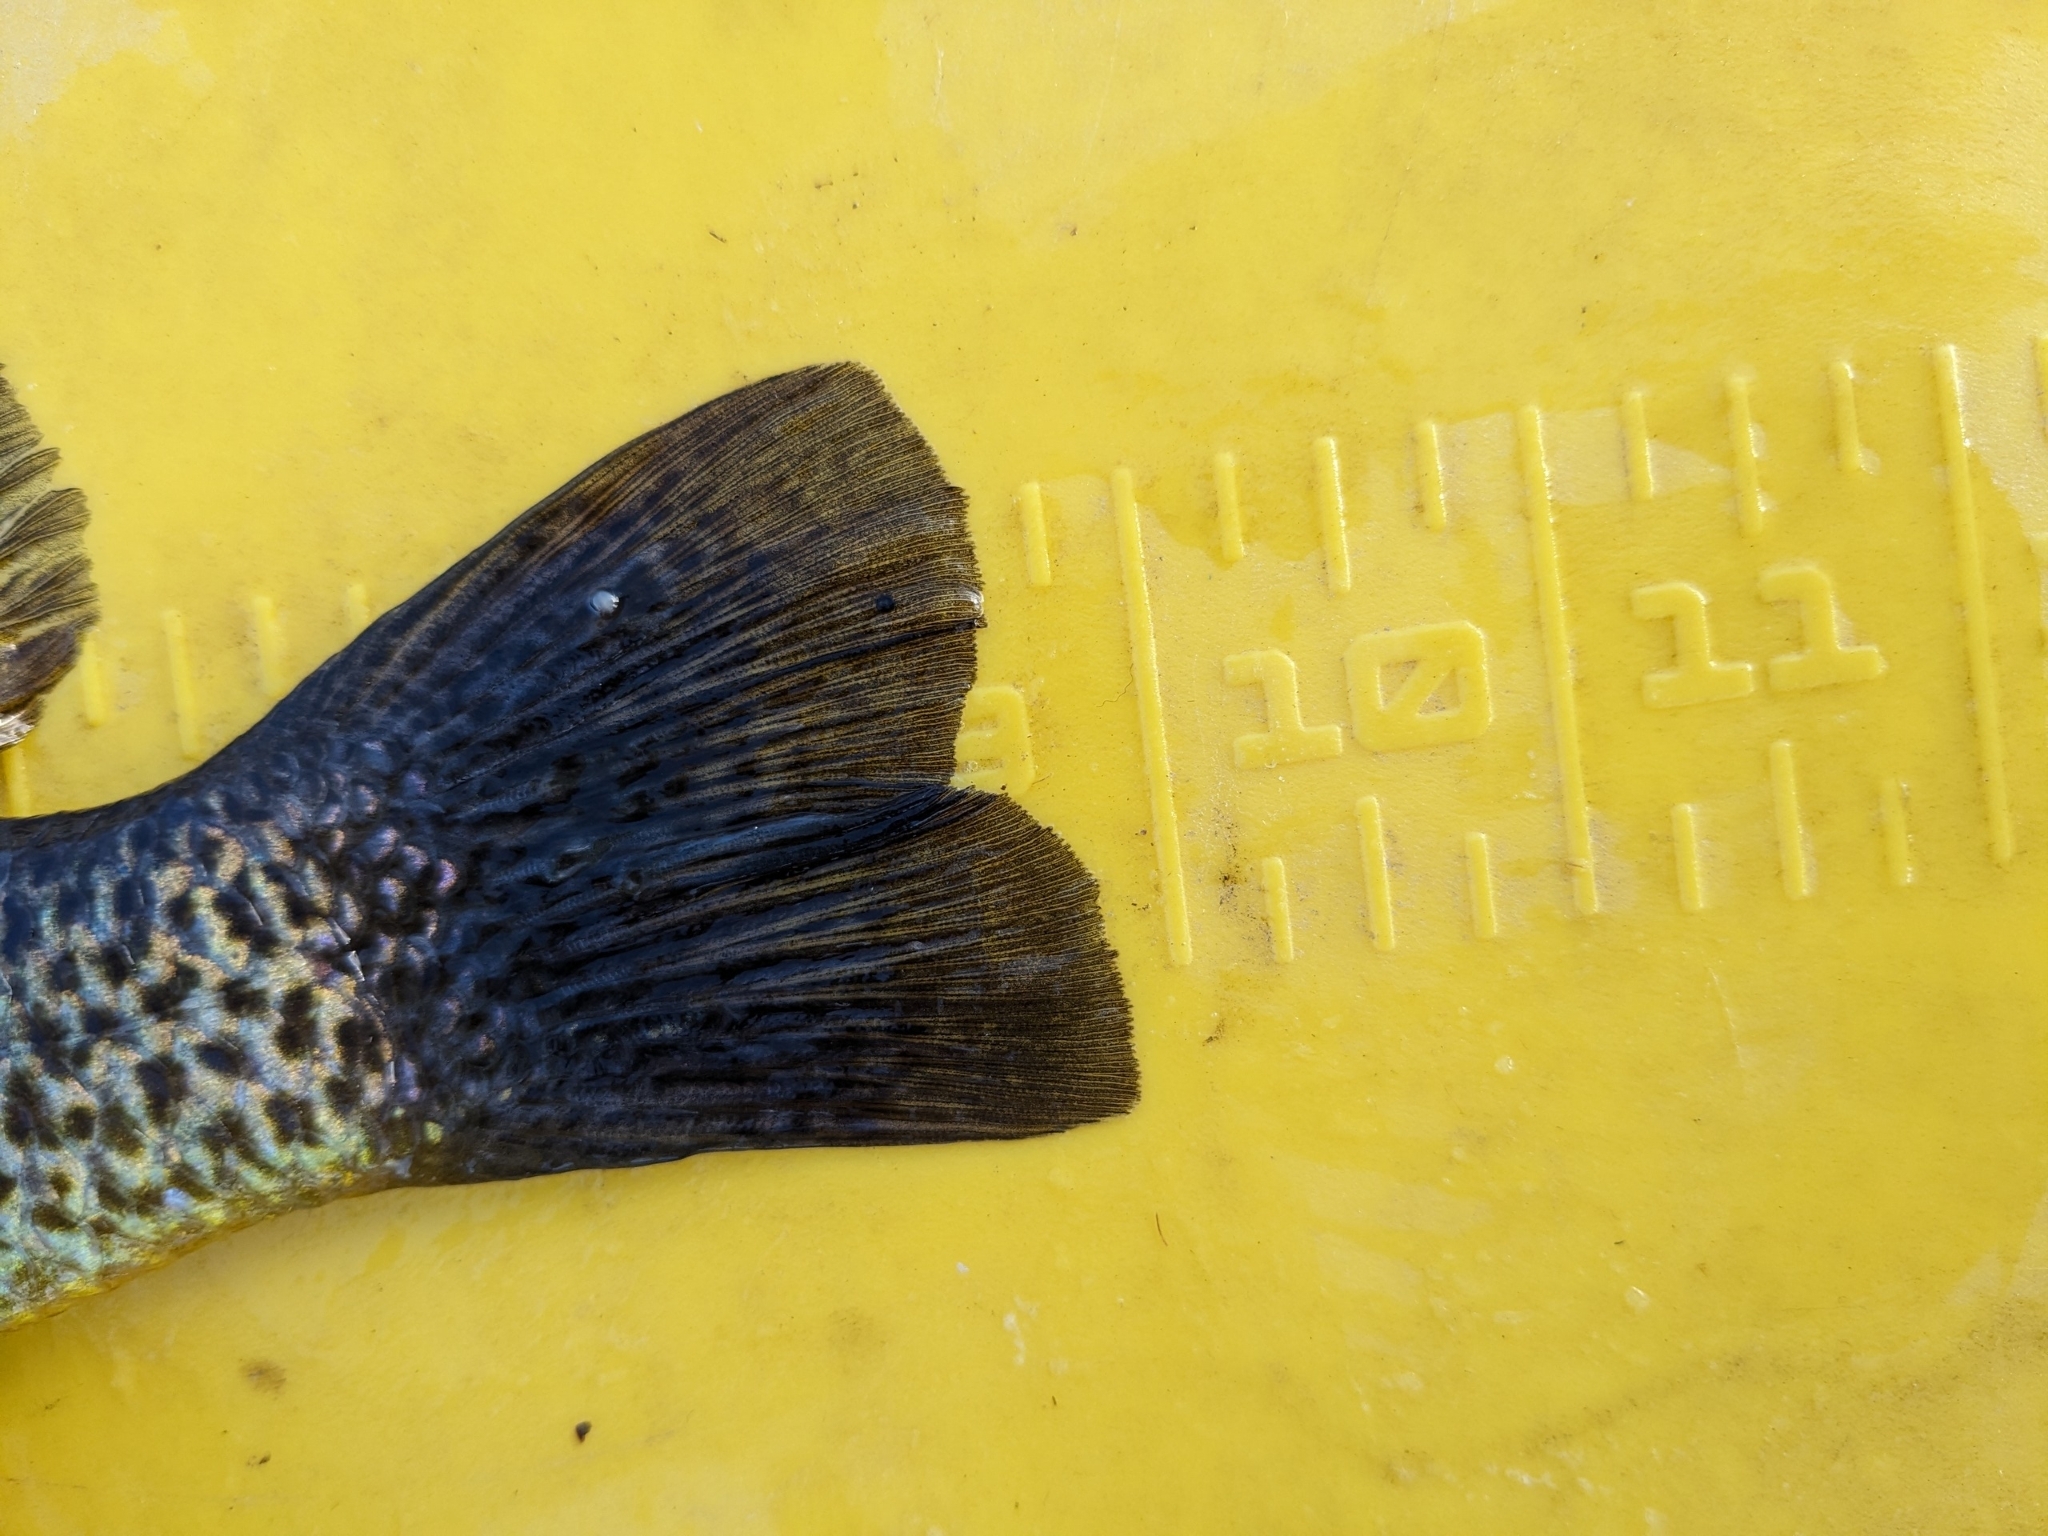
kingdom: Animalia
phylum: Chordata
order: Perciformes
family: Centrarchidae
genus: Lepomis
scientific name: Lepomis gibbosus
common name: Pumpkinseed
